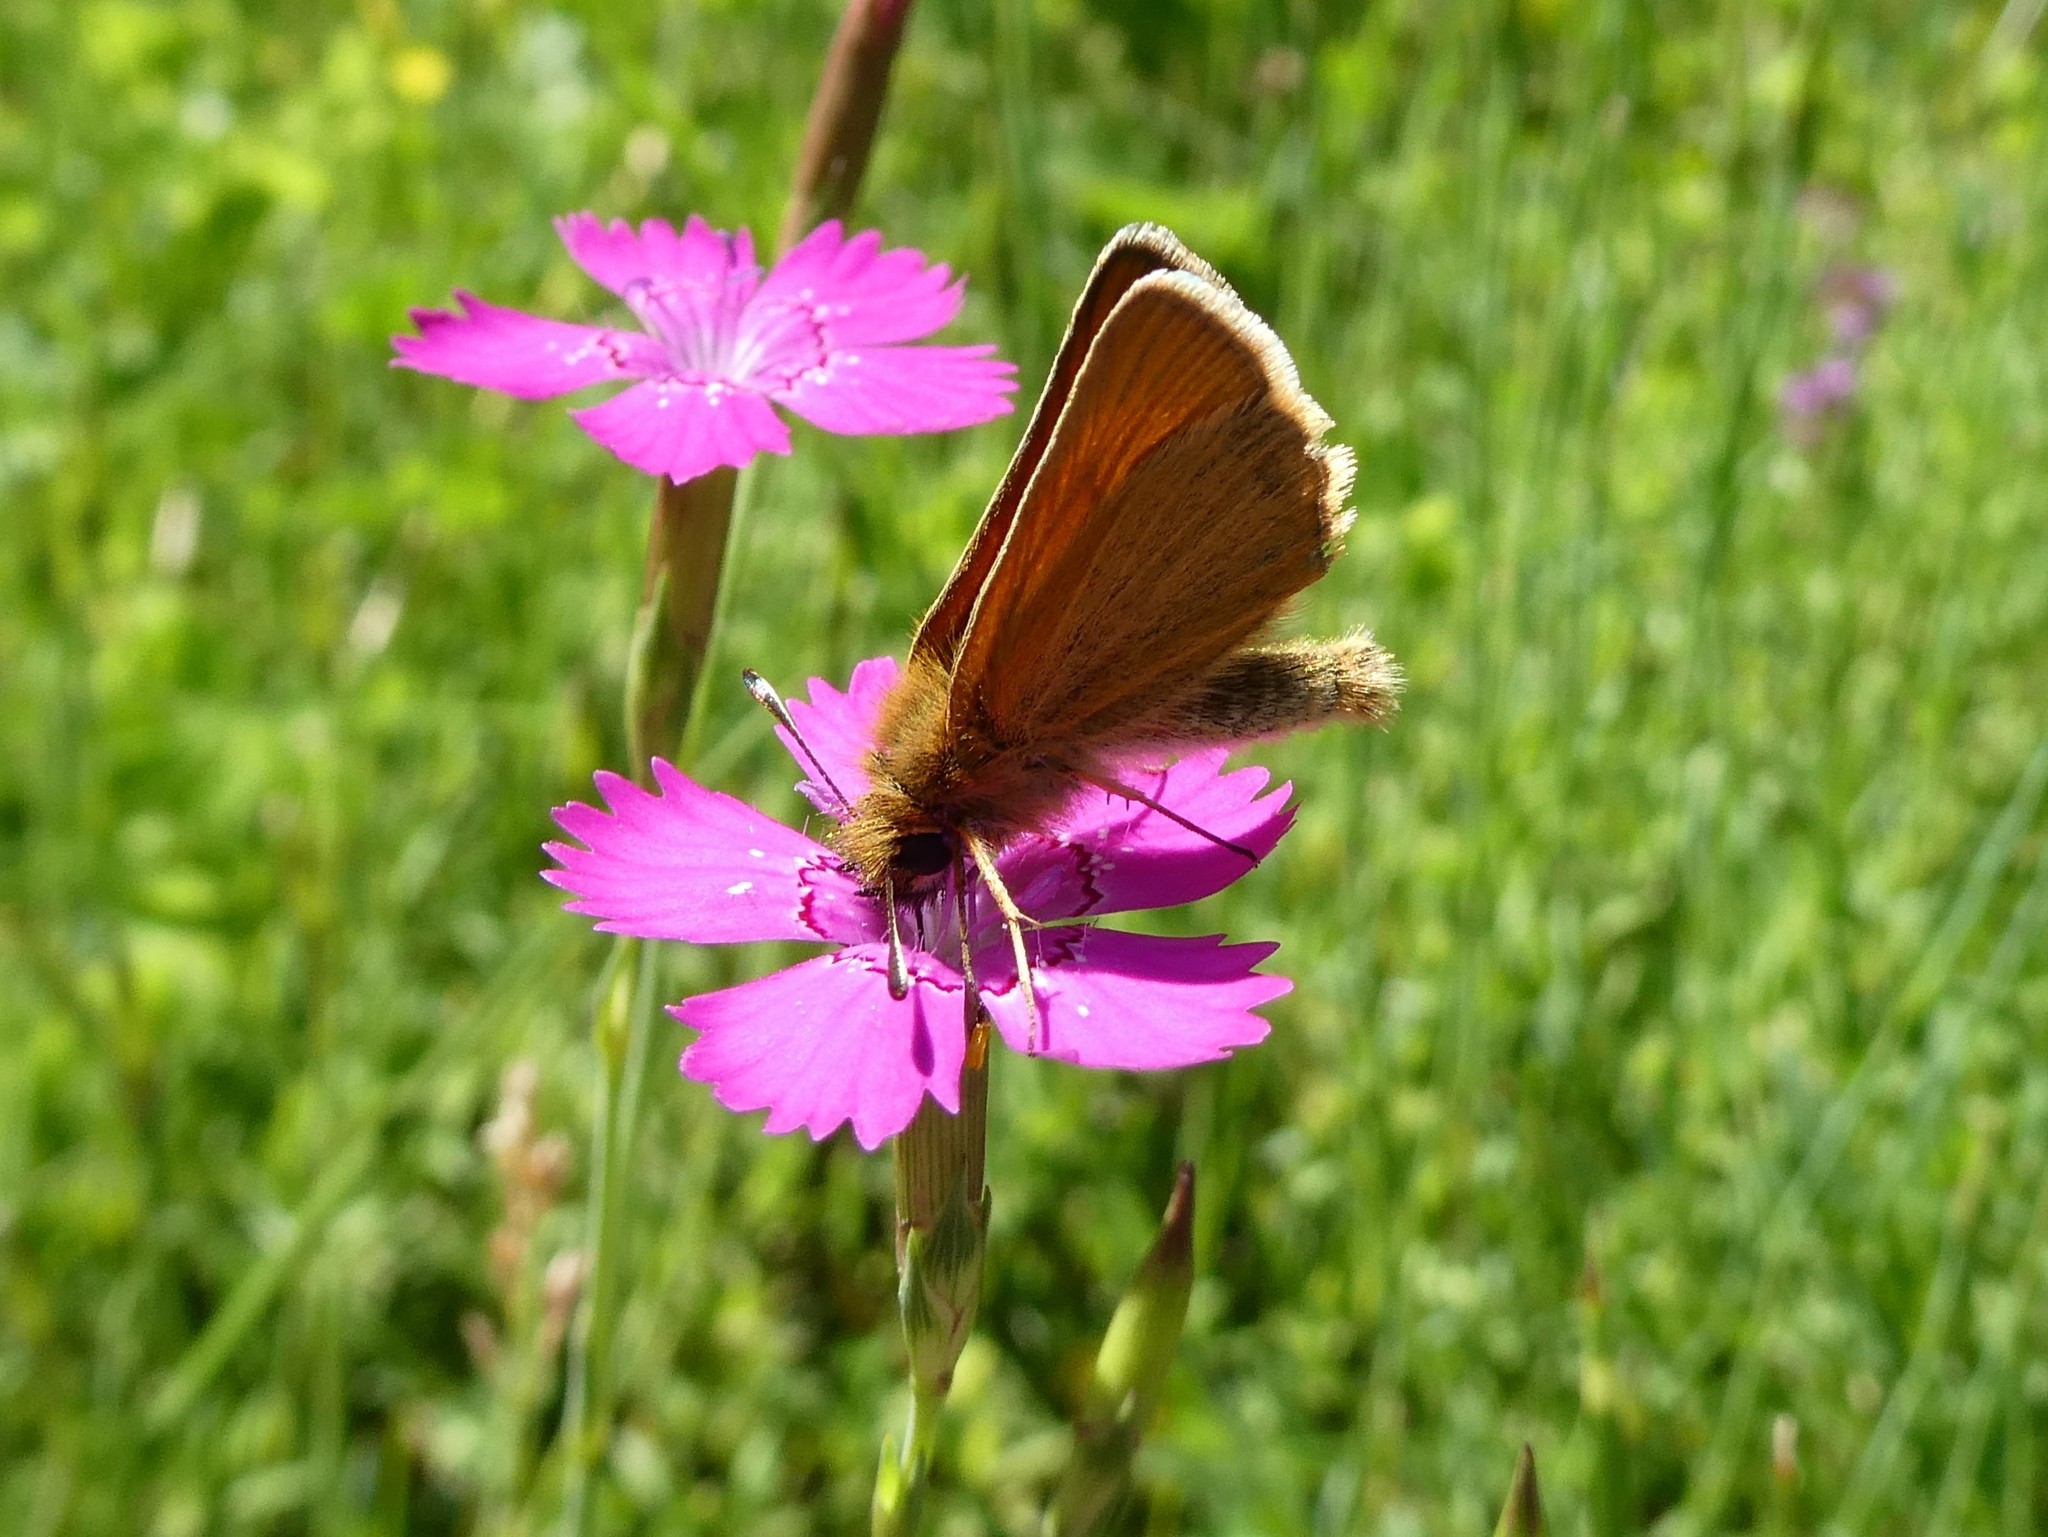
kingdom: Animalia
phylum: Arthropoda
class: Insecta
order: Lepidoptera
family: Hesperiidae
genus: Thymelicus
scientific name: Thymelicus lineola
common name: Essex skipper
